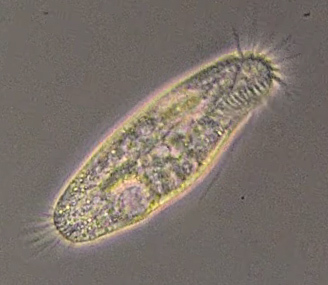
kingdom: Chromista
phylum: Ciliophora
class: Hypotrichea
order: Urostylida
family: Holostichidae
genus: Holosticha
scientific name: Holosticha pullaster
